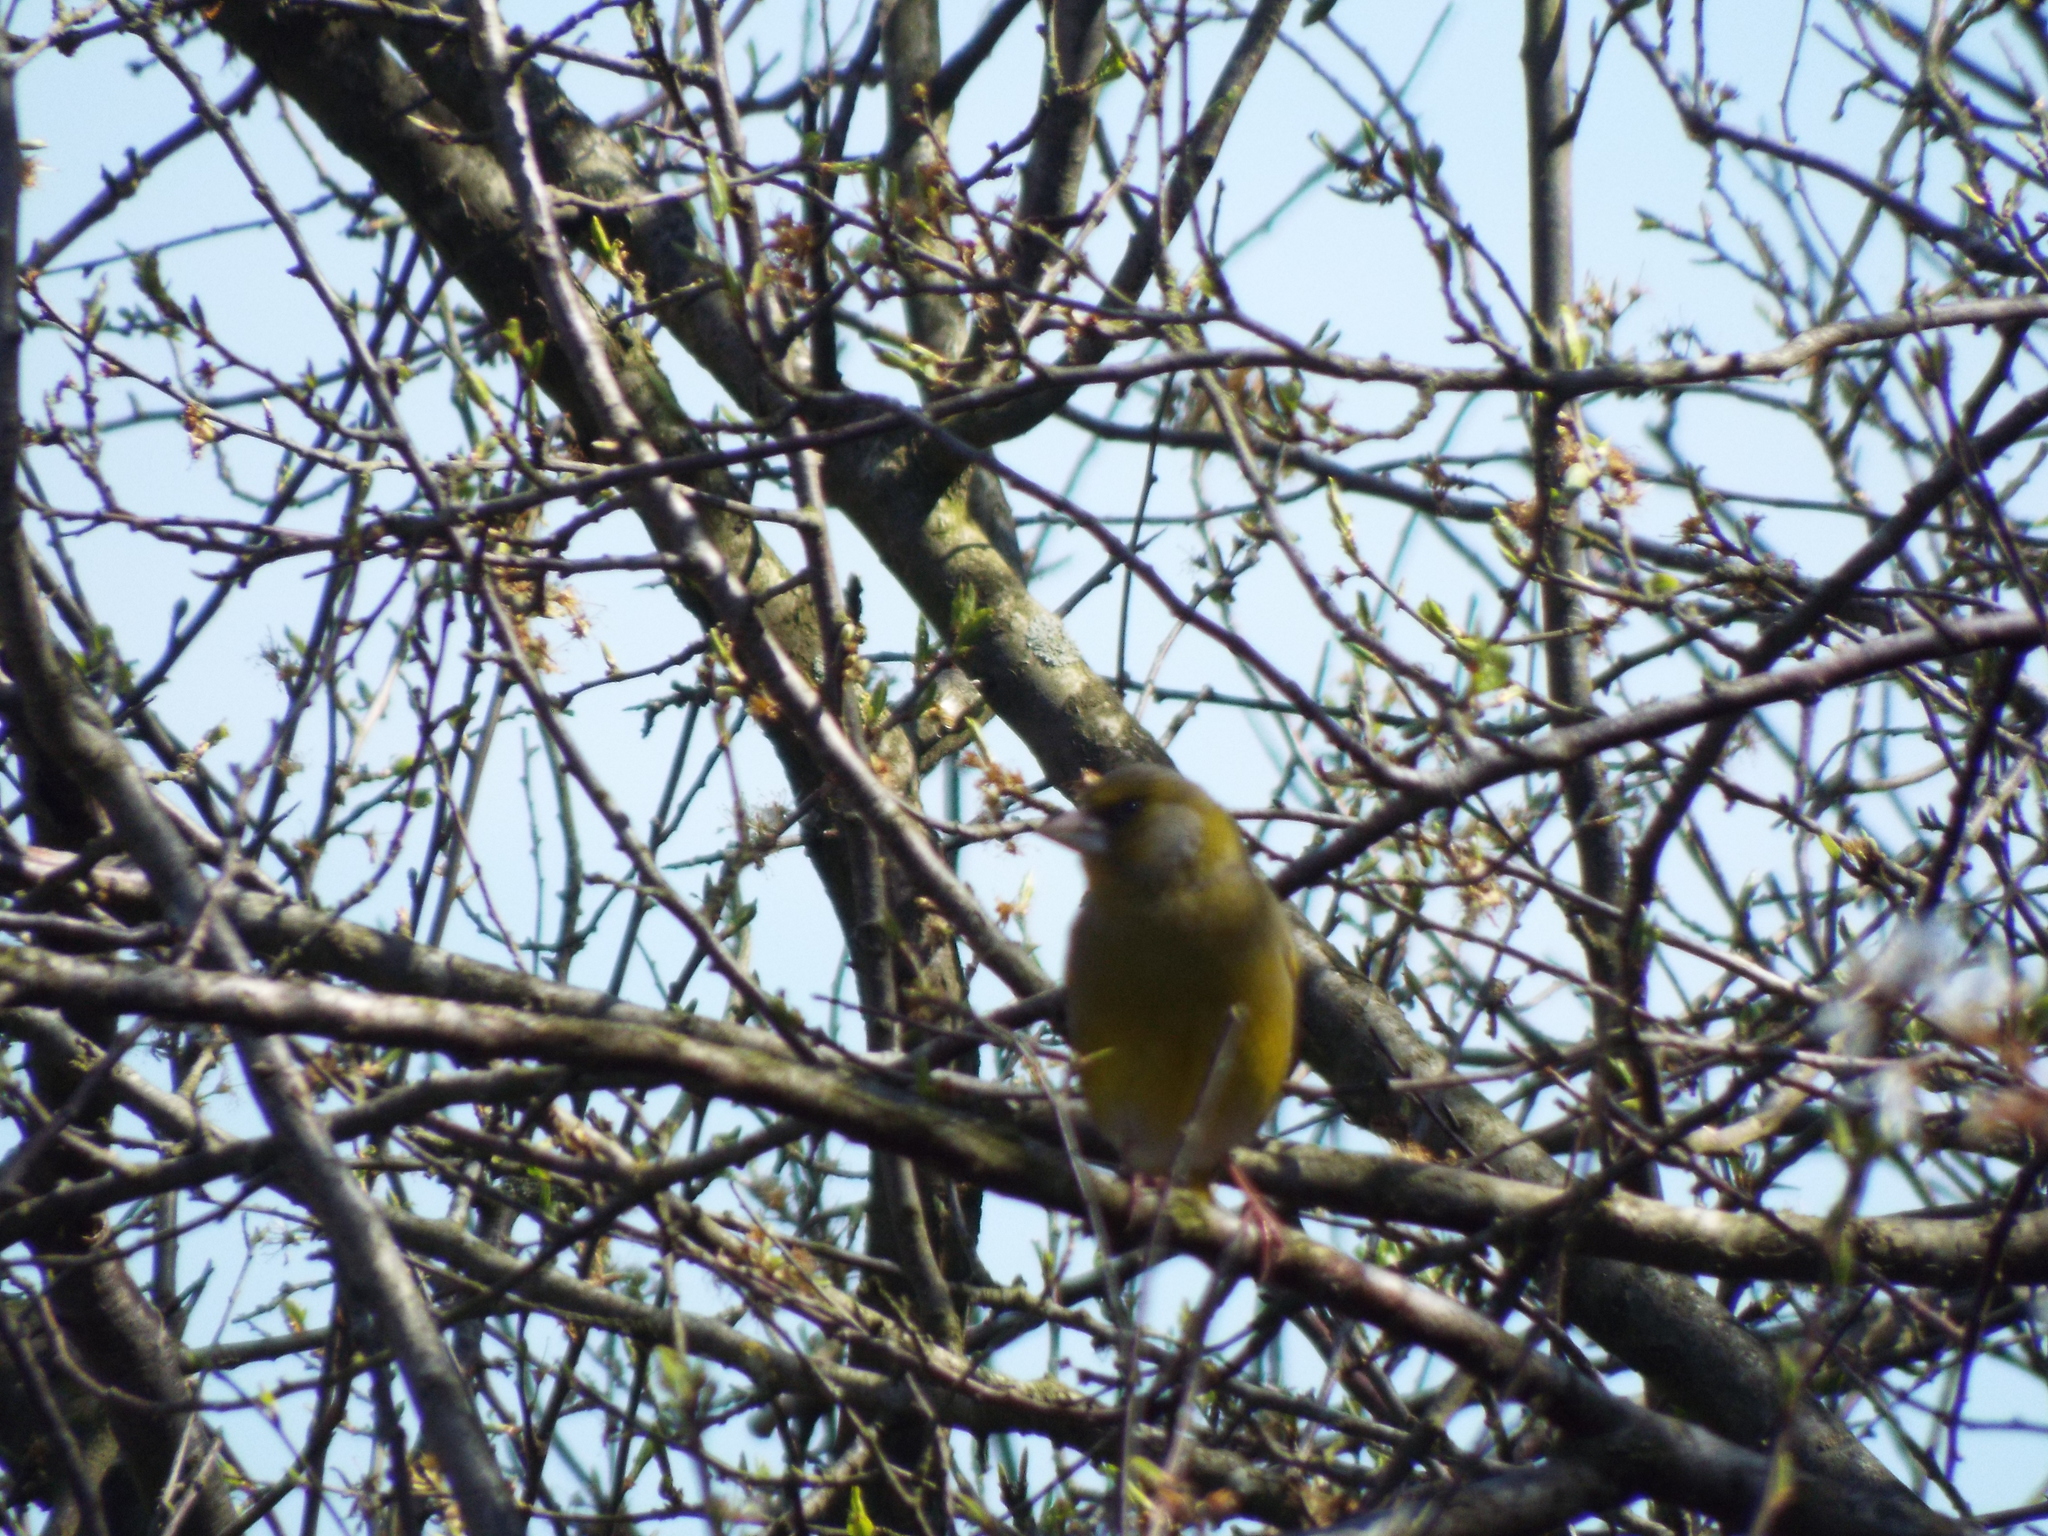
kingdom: Plantae
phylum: Tracheophyta
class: Liliopsida
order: Poales
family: Poaceae
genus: Chloris
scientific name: Chloris chloris
